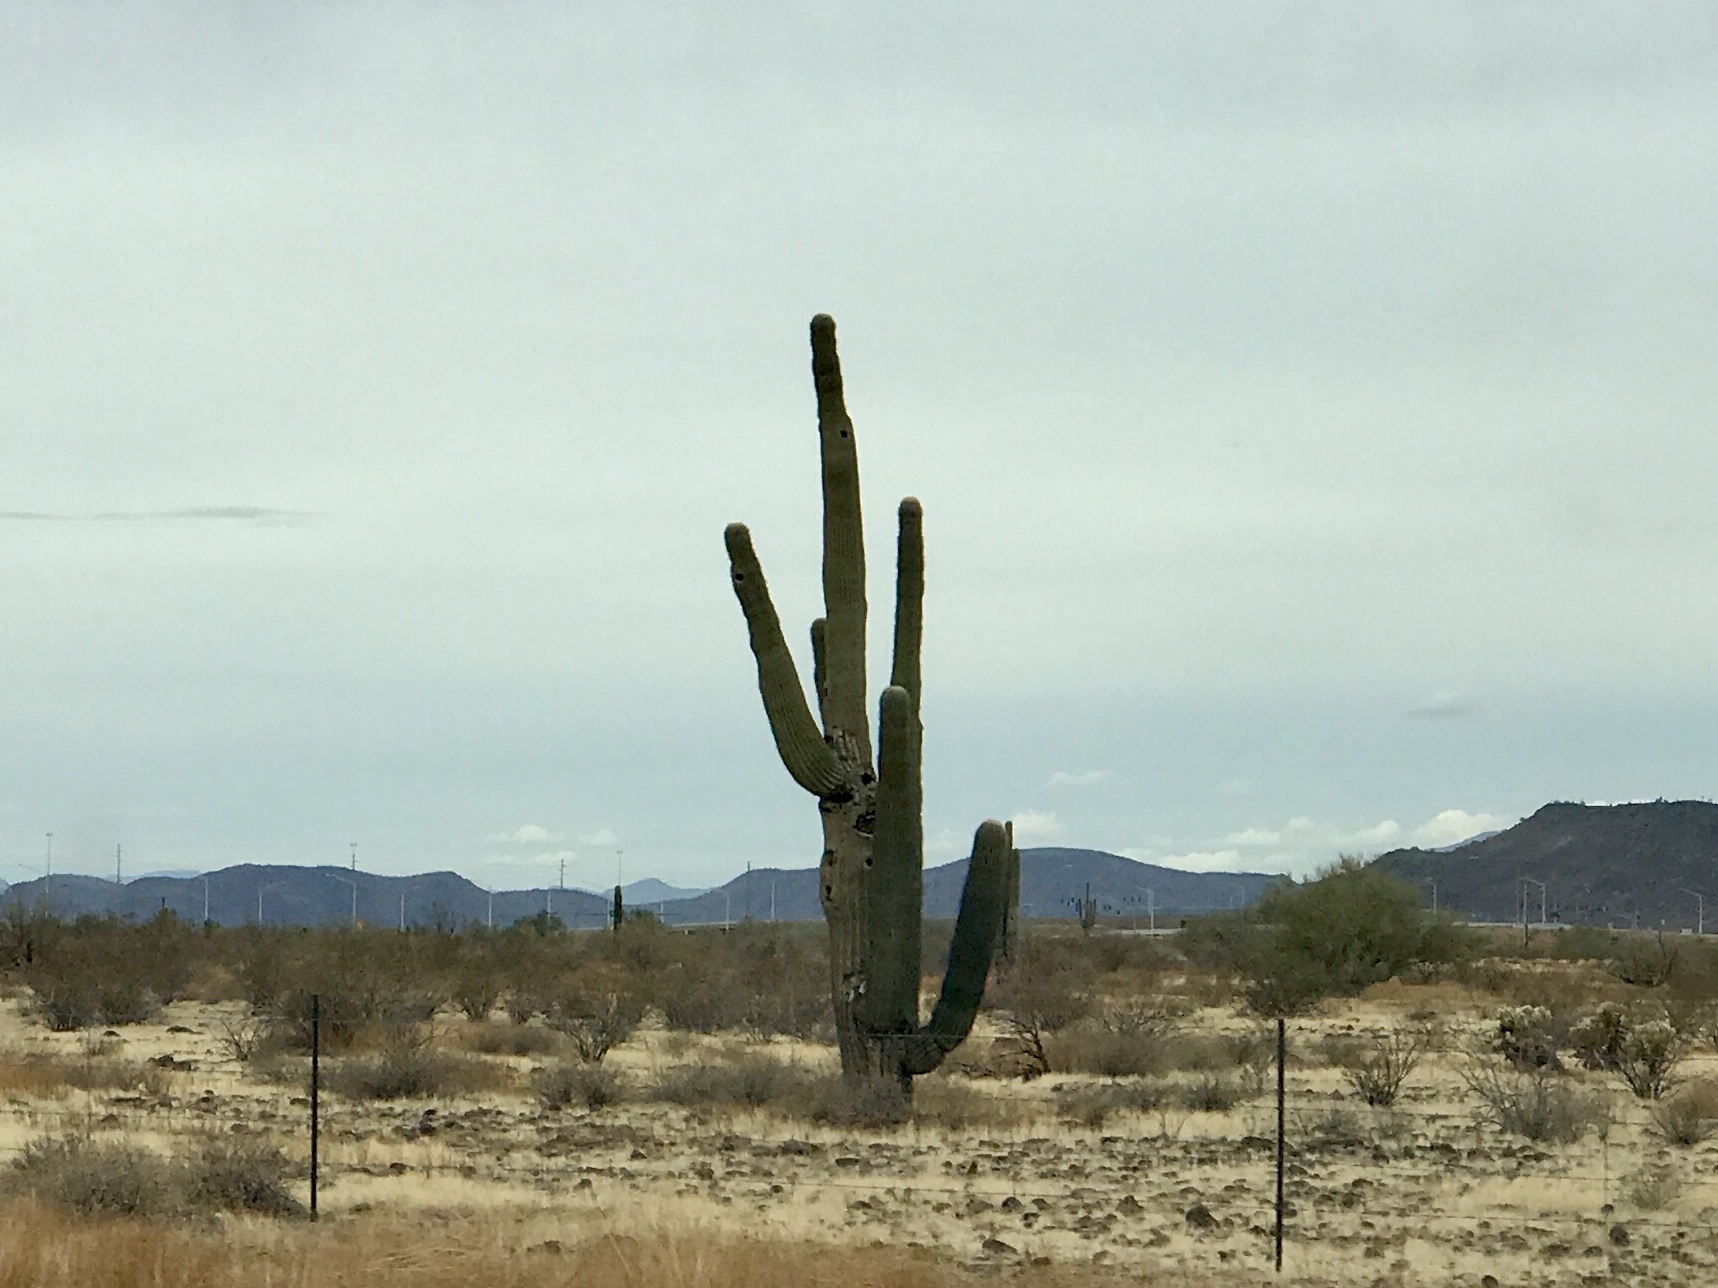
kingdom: Plantae
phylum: Tracheophyta
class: Magnoliopsida
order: Caryophyllales
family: Cactaceae
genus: Carnegiea
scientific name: Carnegiea gigantea
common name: Saguaro
